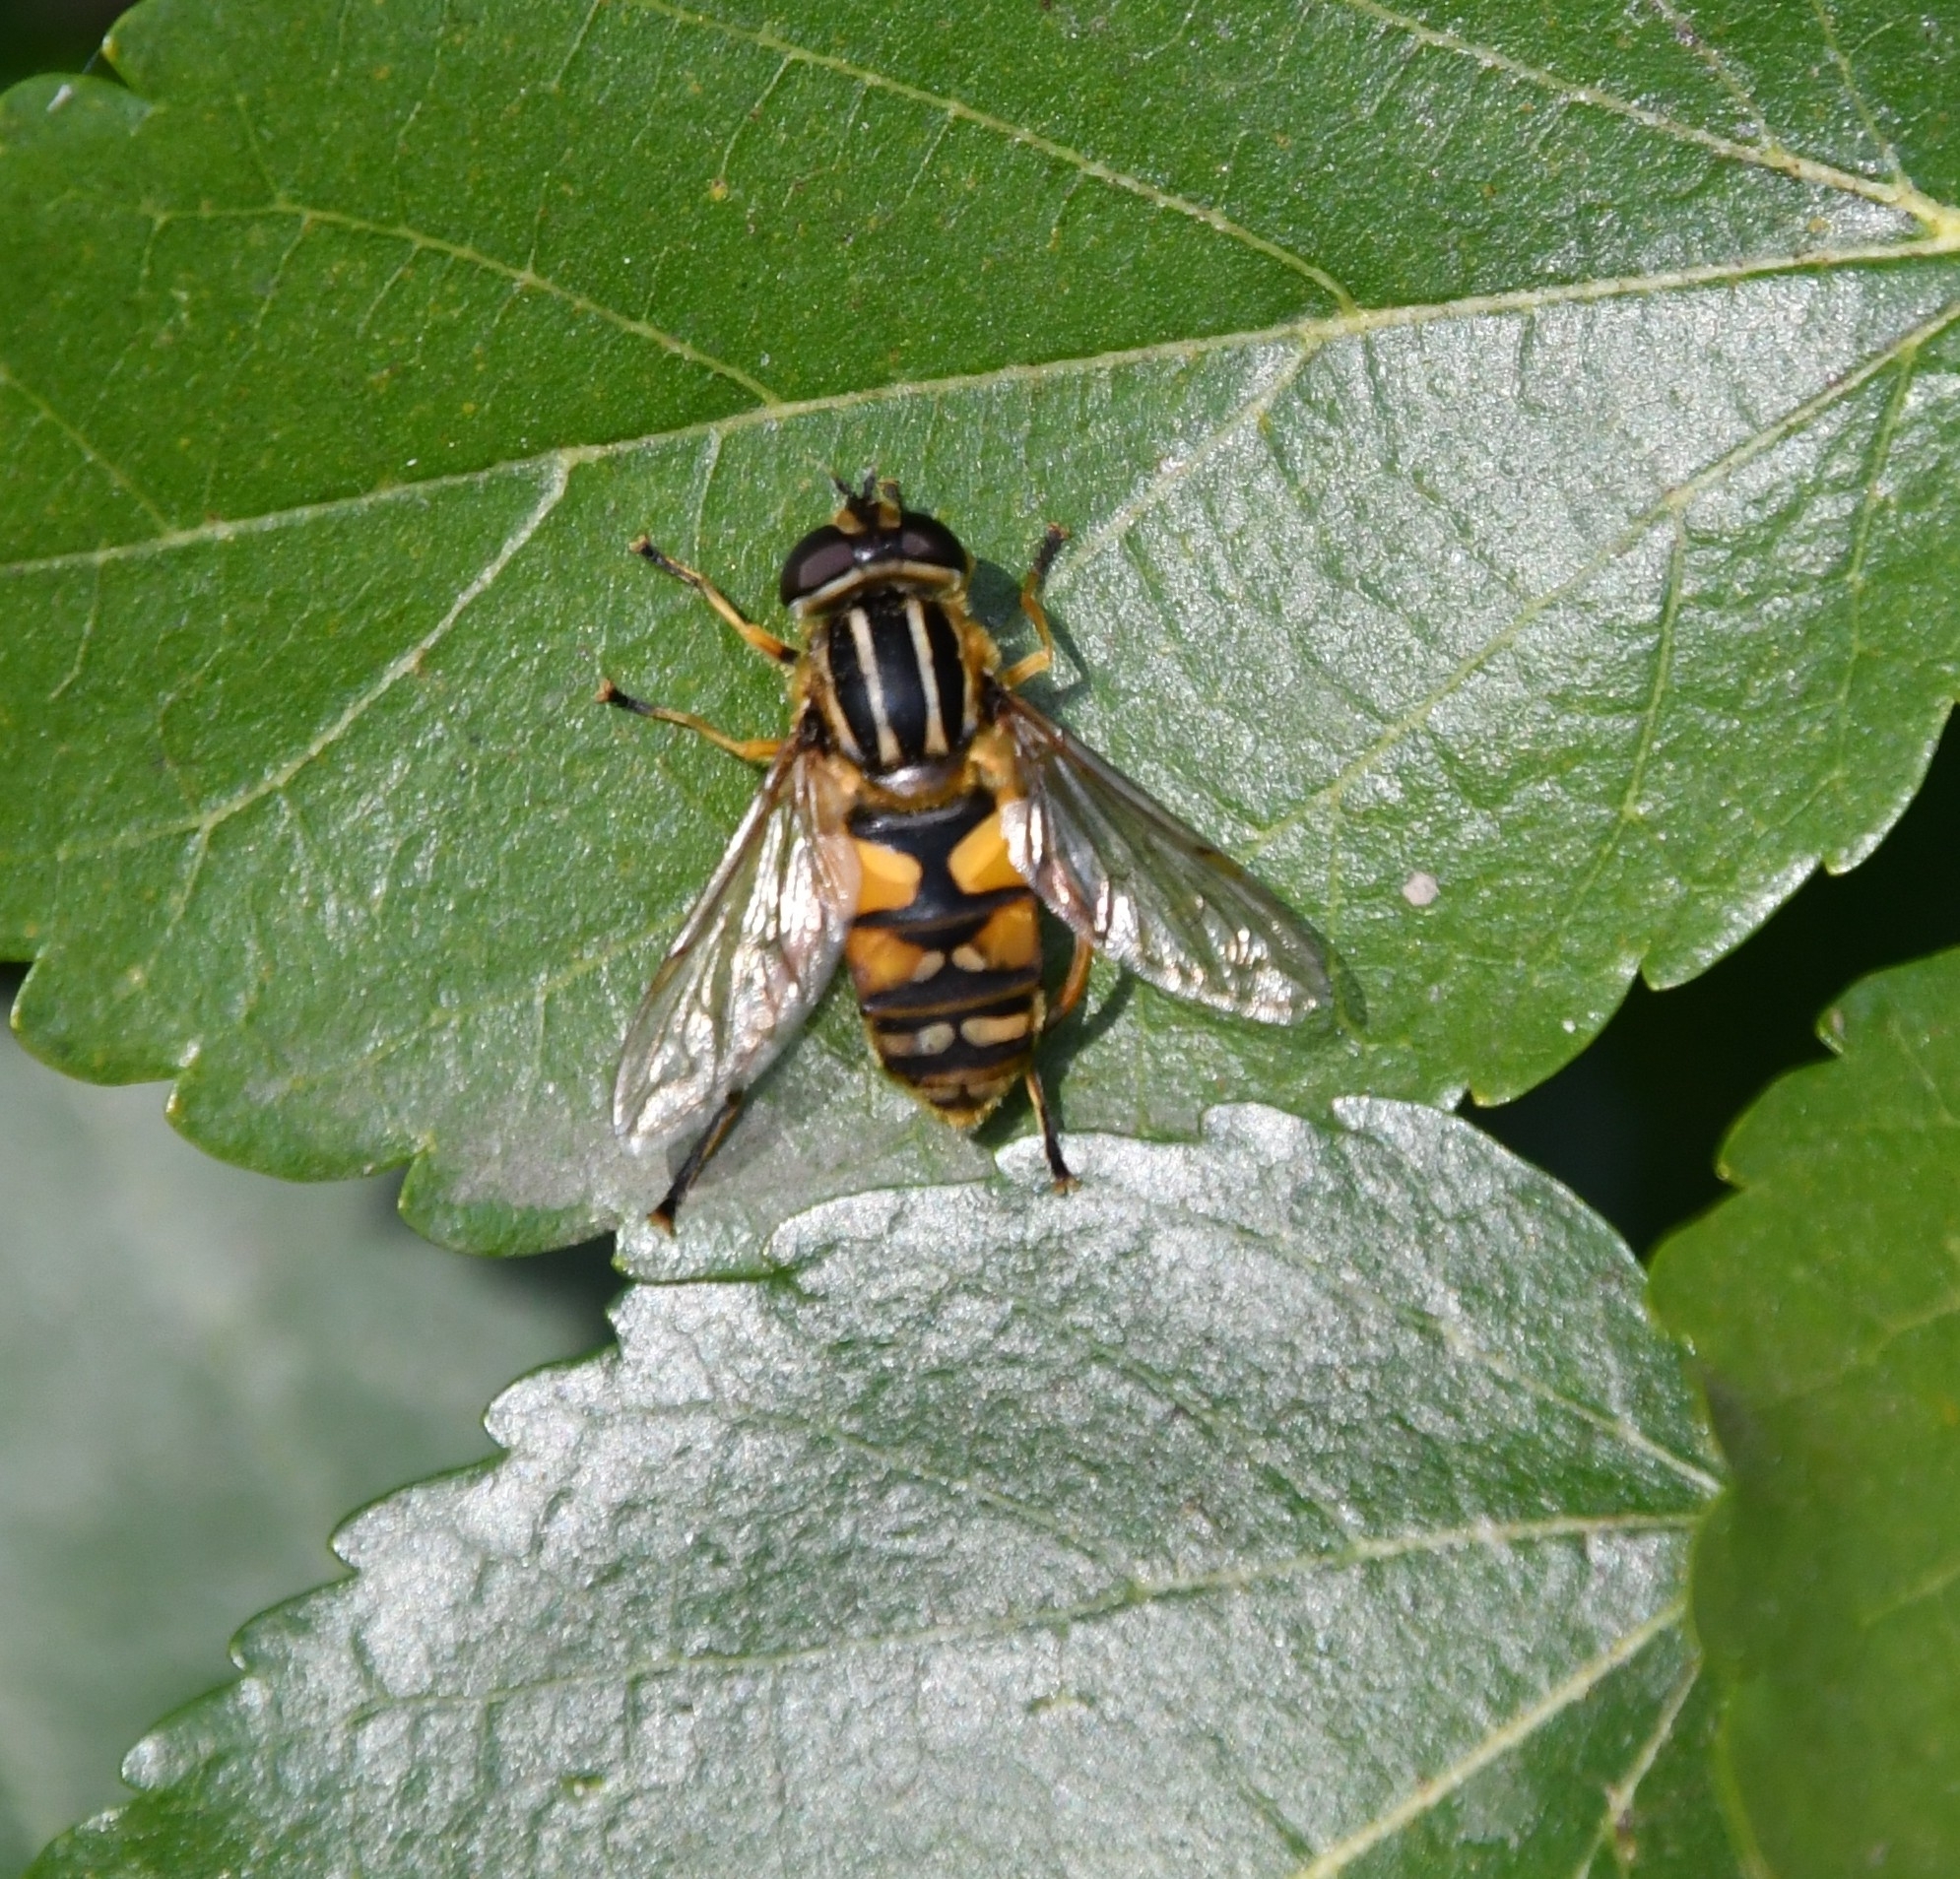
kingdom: Animalia
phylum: Arthropoda
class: Insecta
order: Diptera
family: Syrphidae
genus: Helophilus
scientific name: Helophilus pendulus
